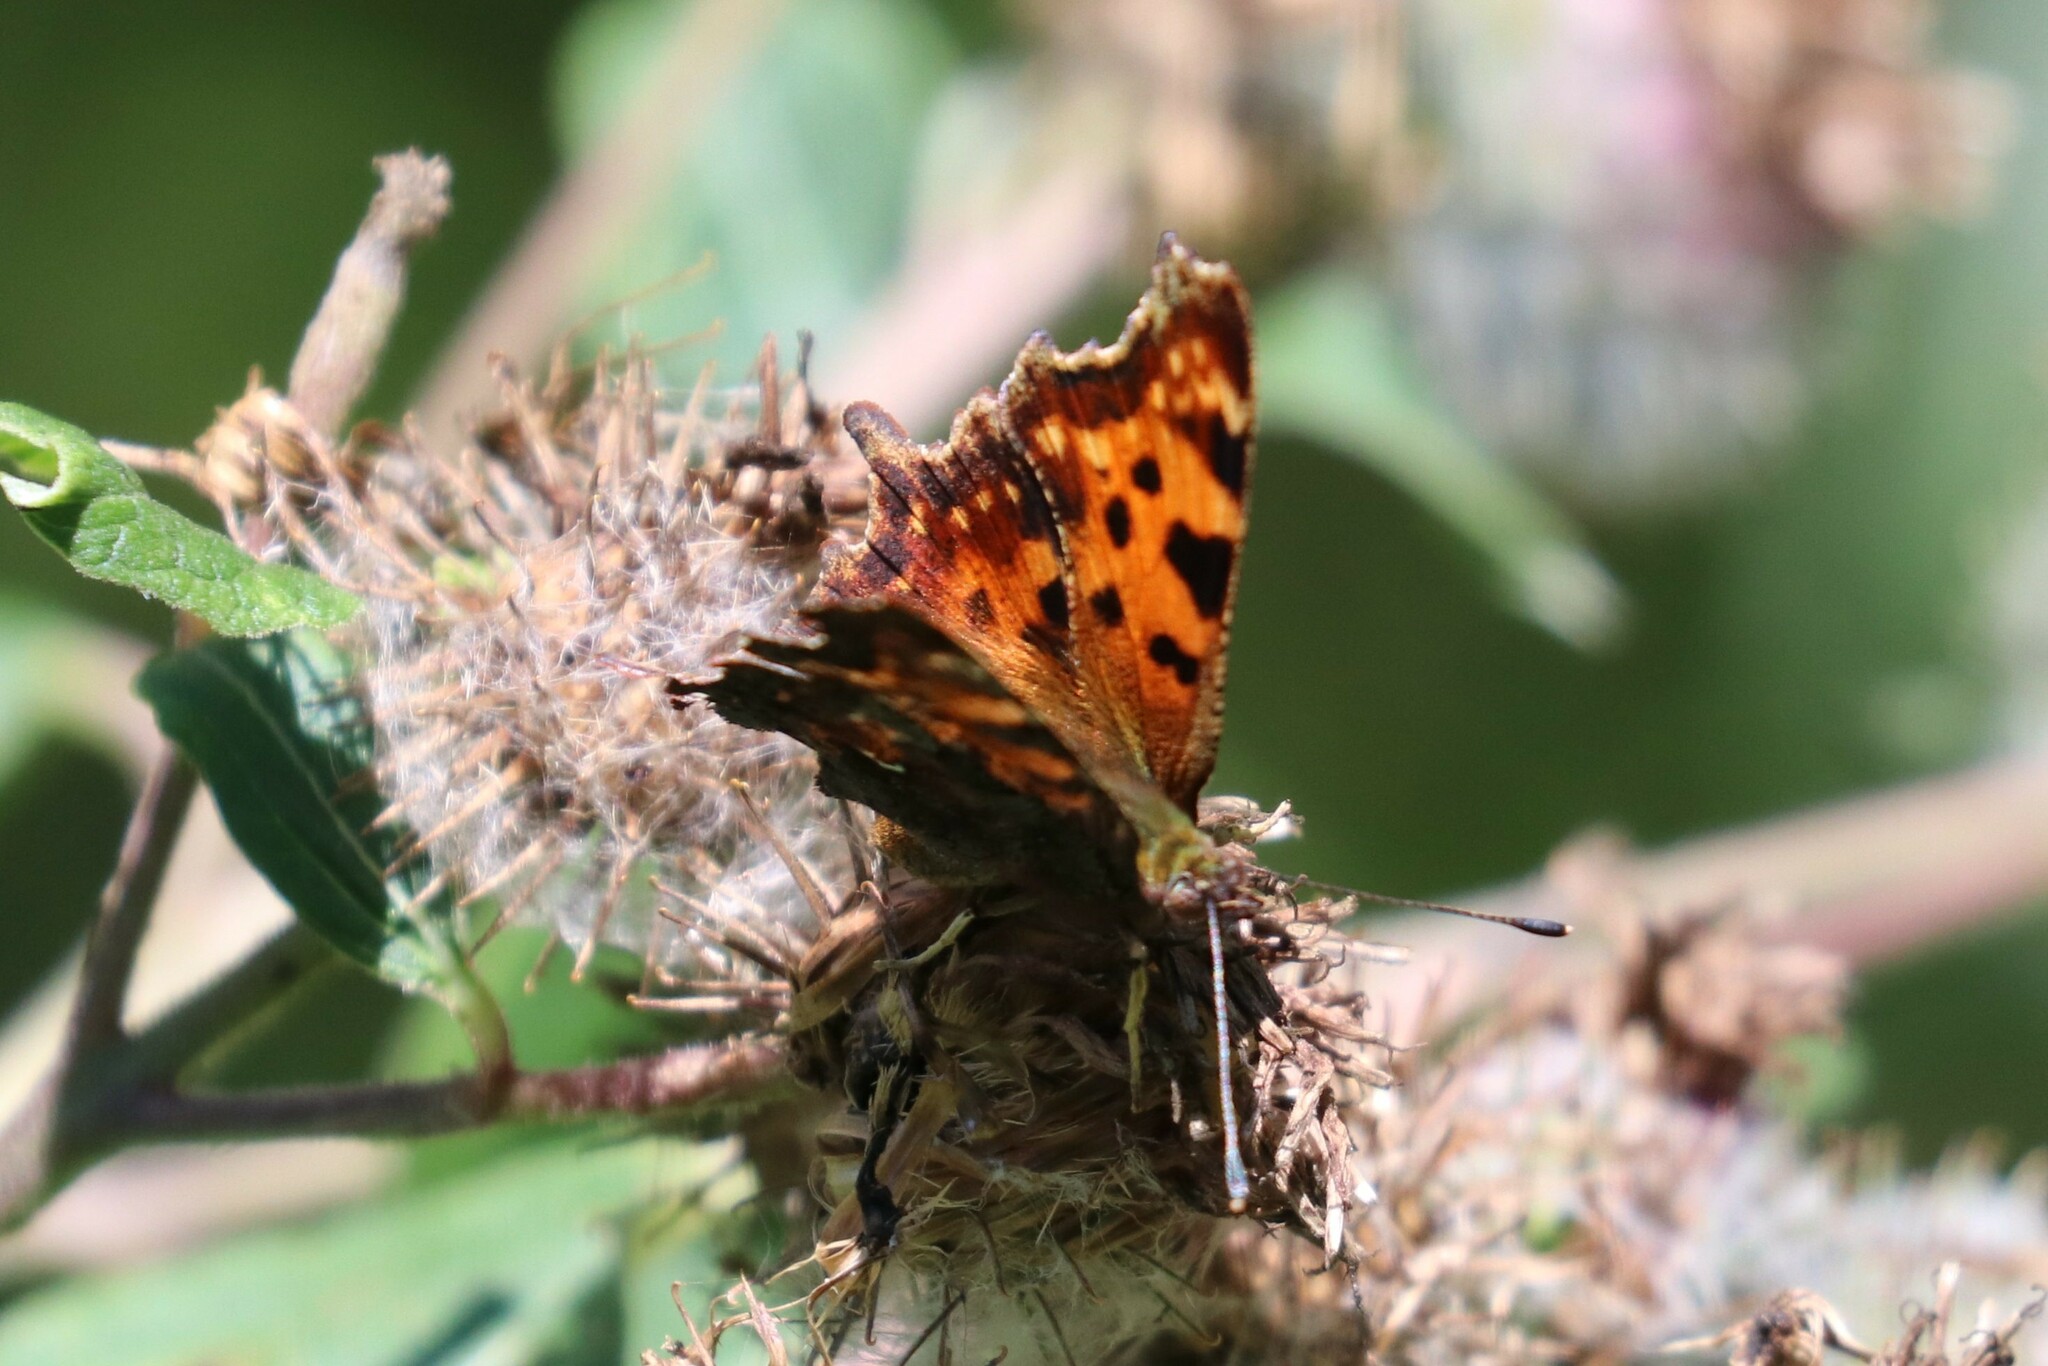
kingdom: Animalia
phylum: Arthropoda
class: Insecta
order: Lepidoptera
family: Nymphalidae
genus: Polygonia
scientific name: Polygonia c-album
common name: Comma
